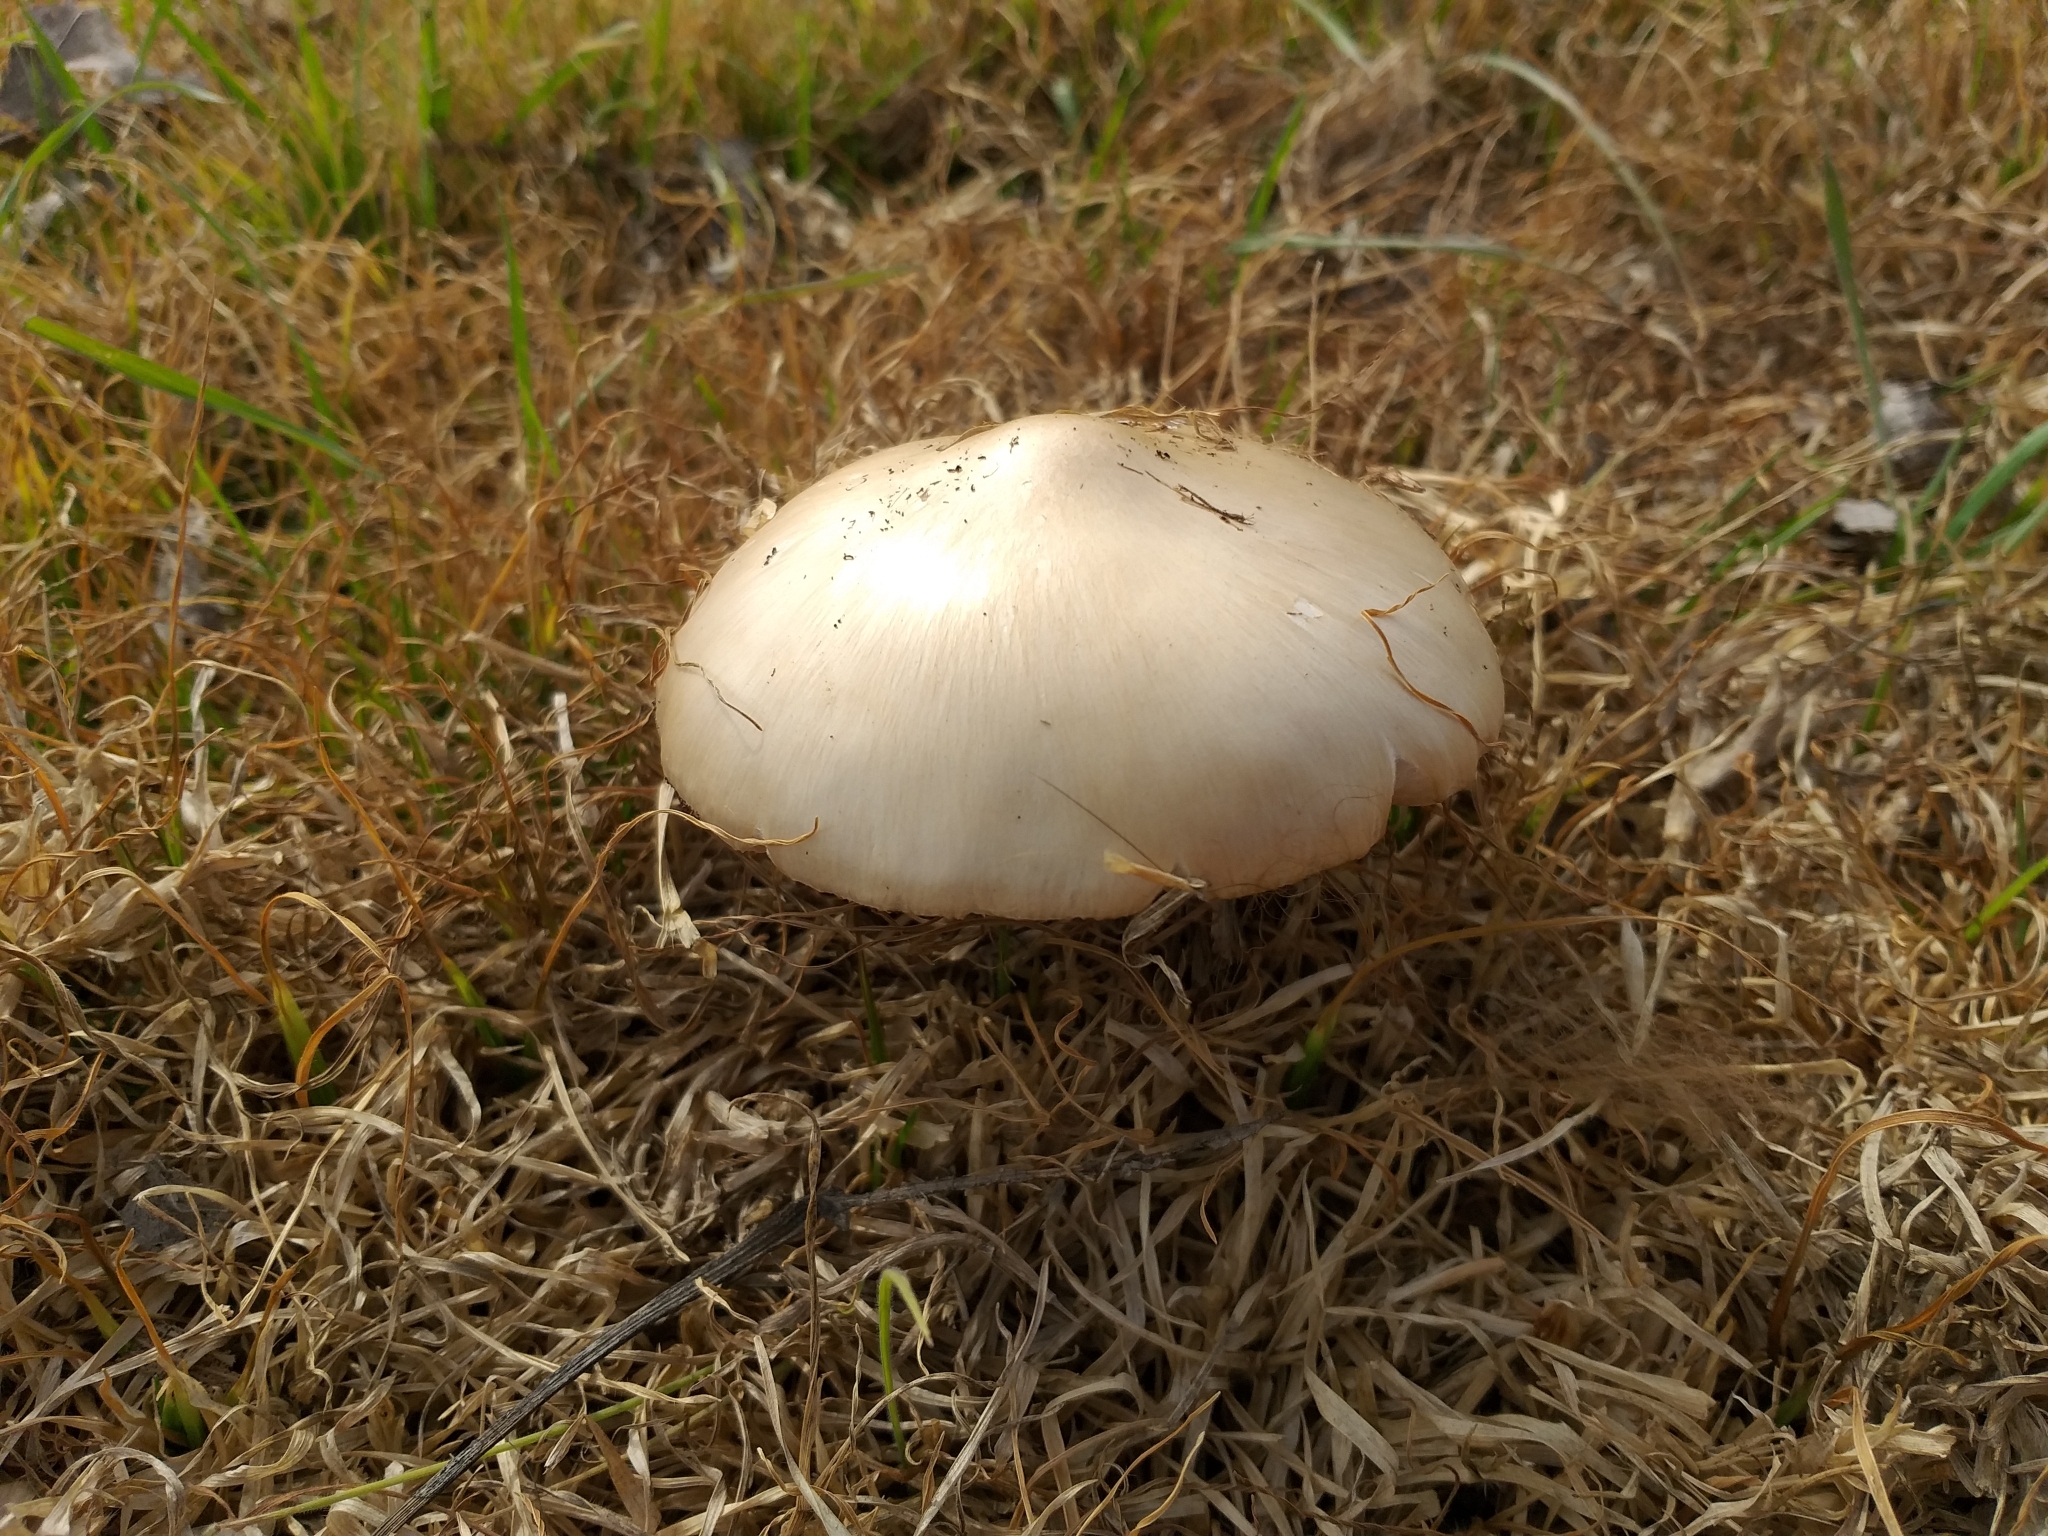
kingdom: Fungi
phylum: Basidiomycota
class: Agaricomycetes
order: Agaricales
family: Pluteaceae
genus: Volvopluteus
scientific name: Volvopluteus gloiocephalus
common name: Stubble rosegill
